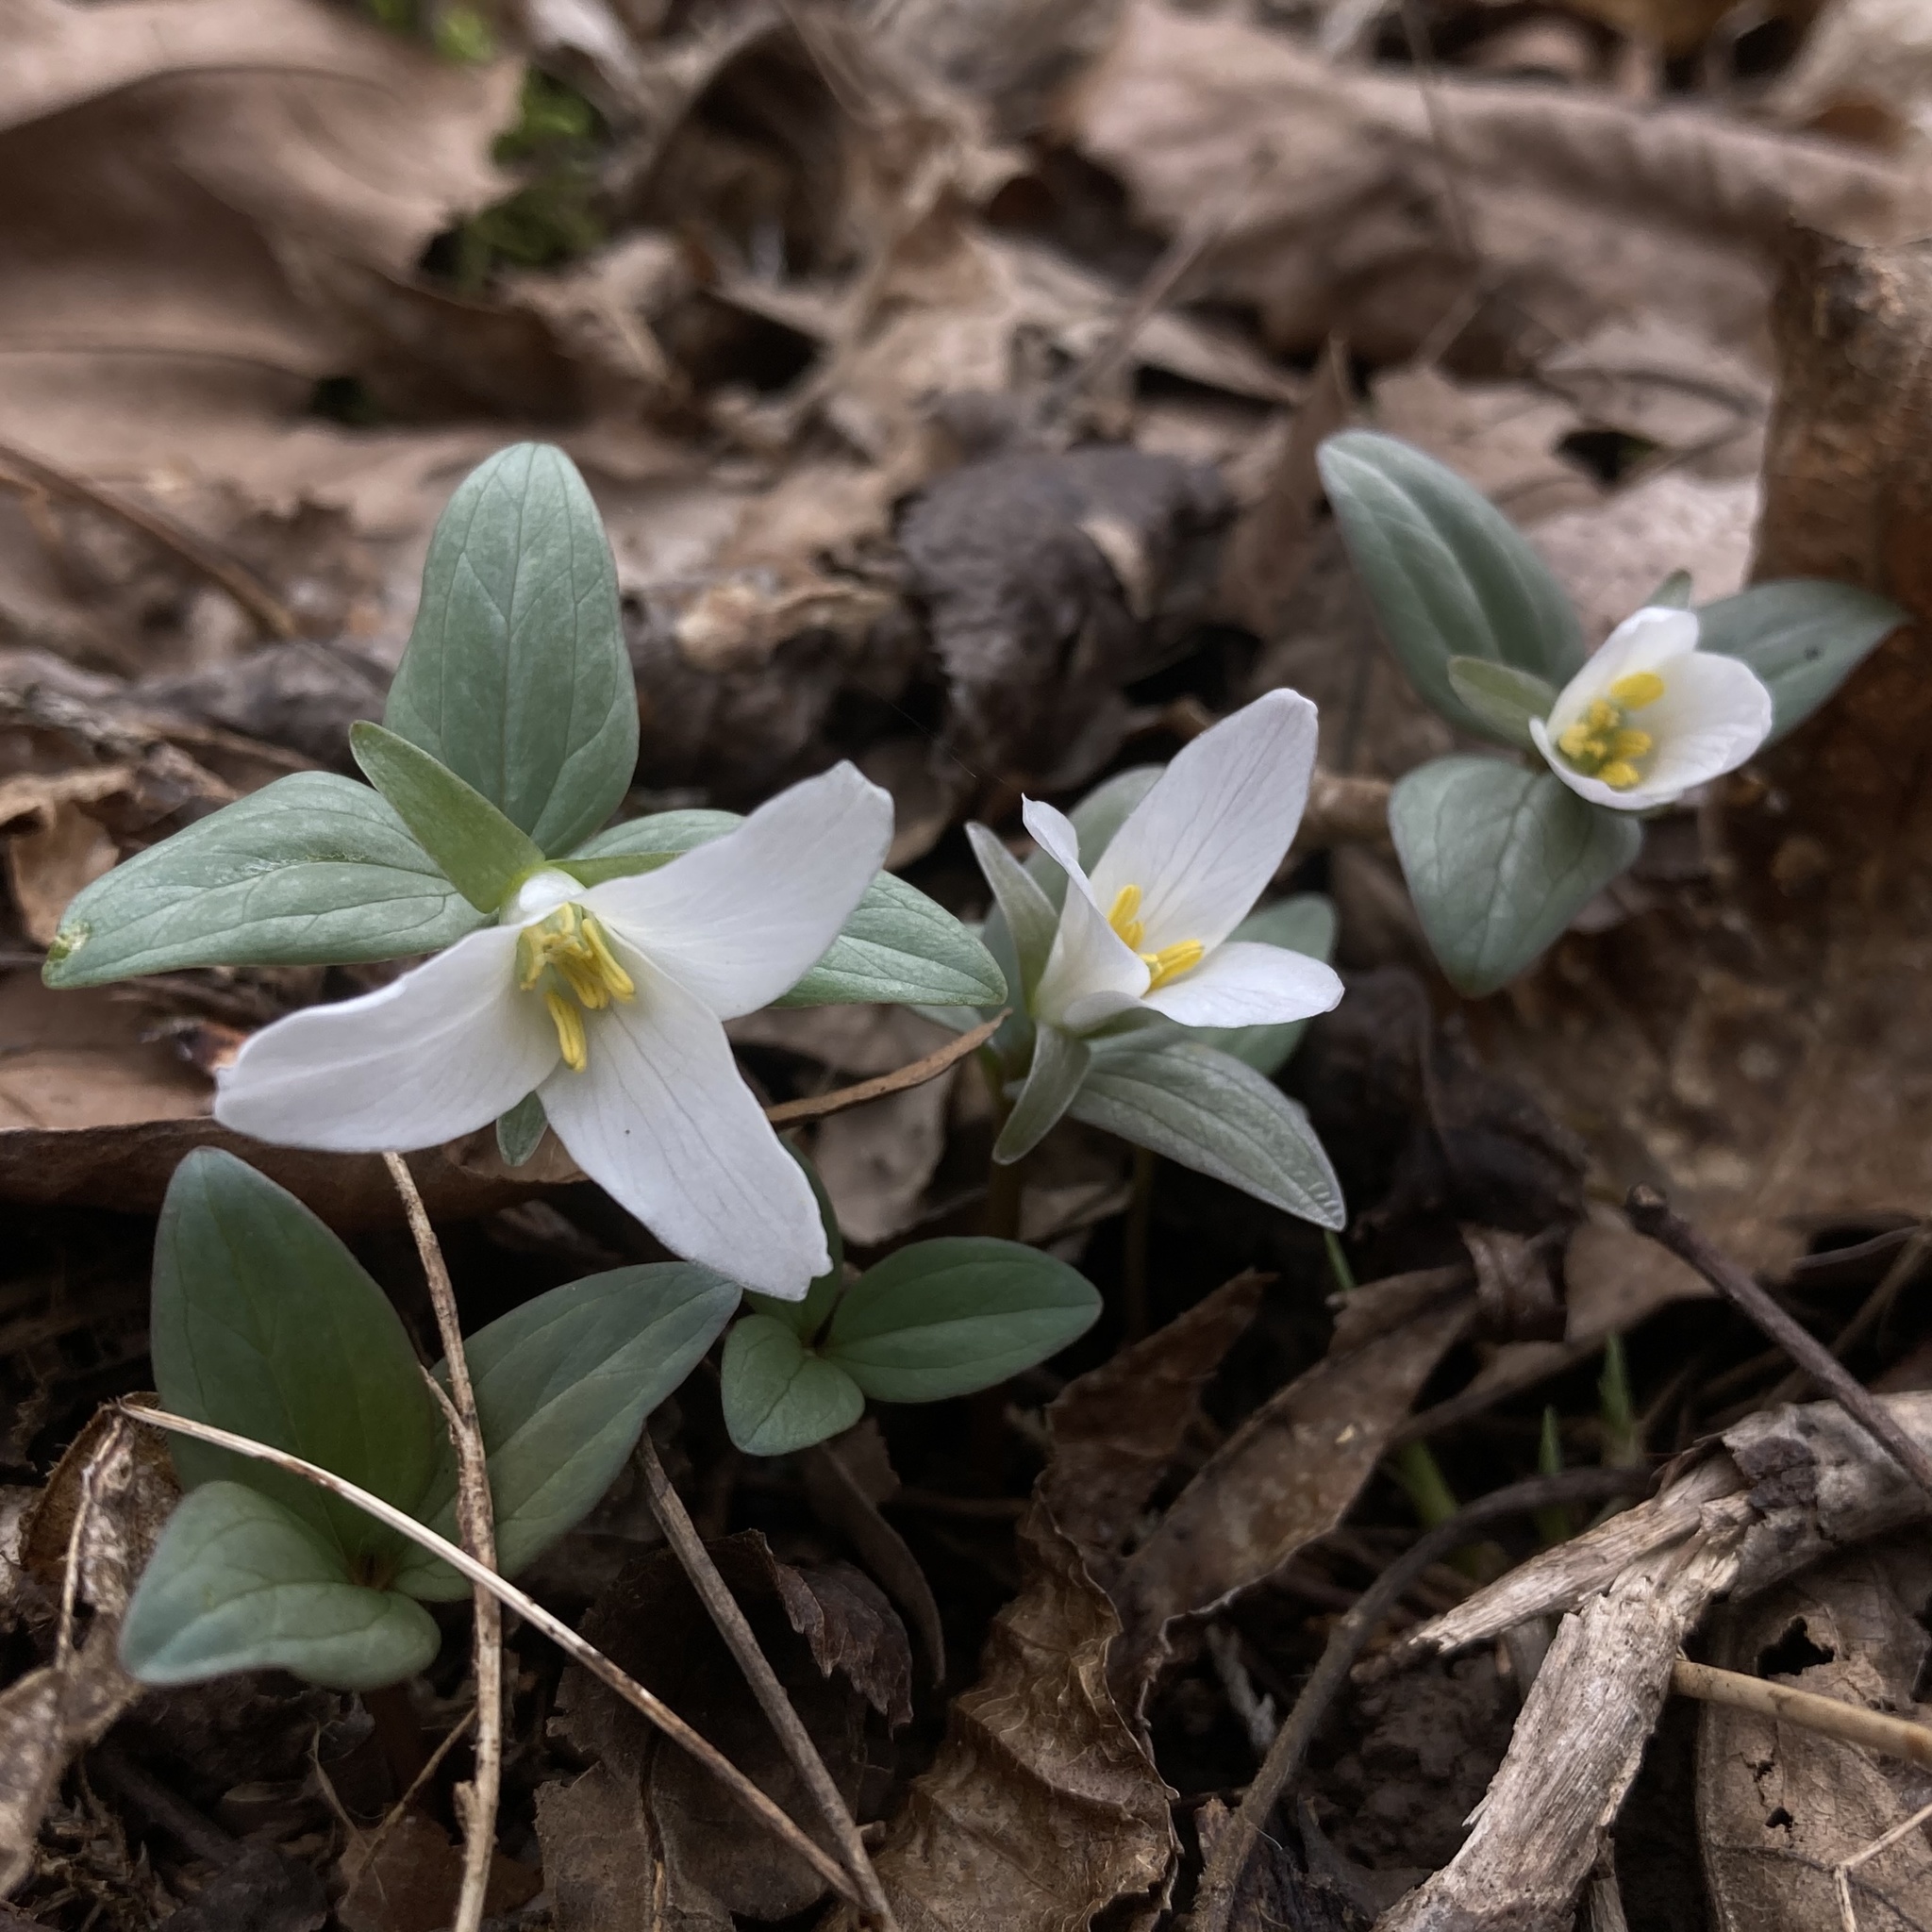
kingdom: Plantae
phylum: Tracheophyta
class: Liliopsida
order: Liliales
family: Melanthiaceae
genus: Trillium
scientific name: Trillium nivale
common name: Dwarf white trillium
